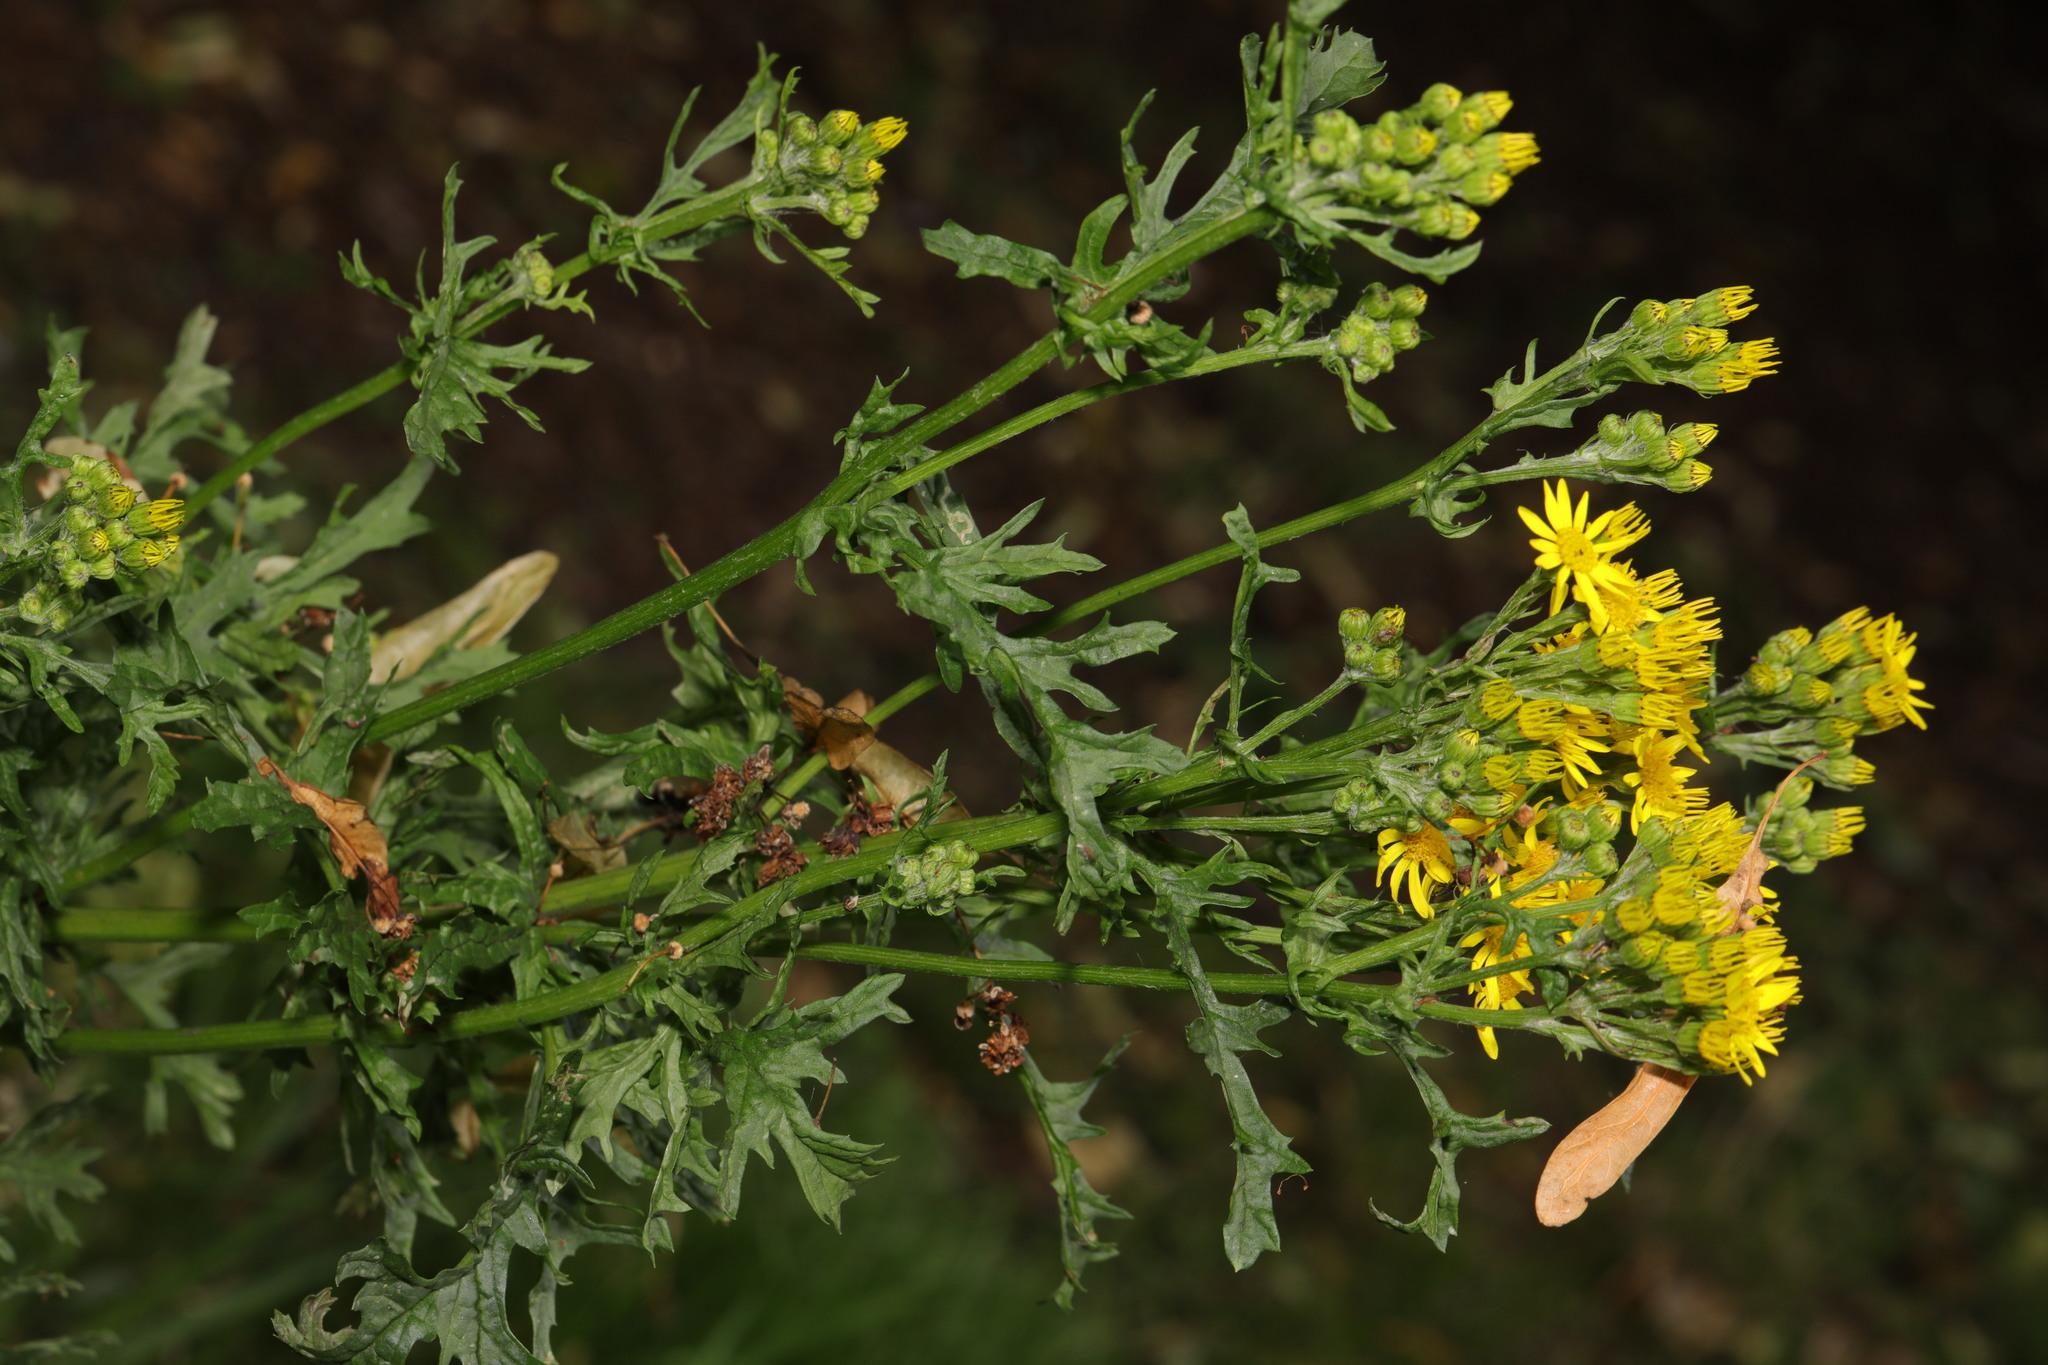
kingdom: Plantae
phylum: Tracheophyta
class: Magnoliopsida
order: Asterales
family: Asteraceae
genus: Jacobaea
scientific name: Jacobaea vulgaris
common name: Stinking willie
